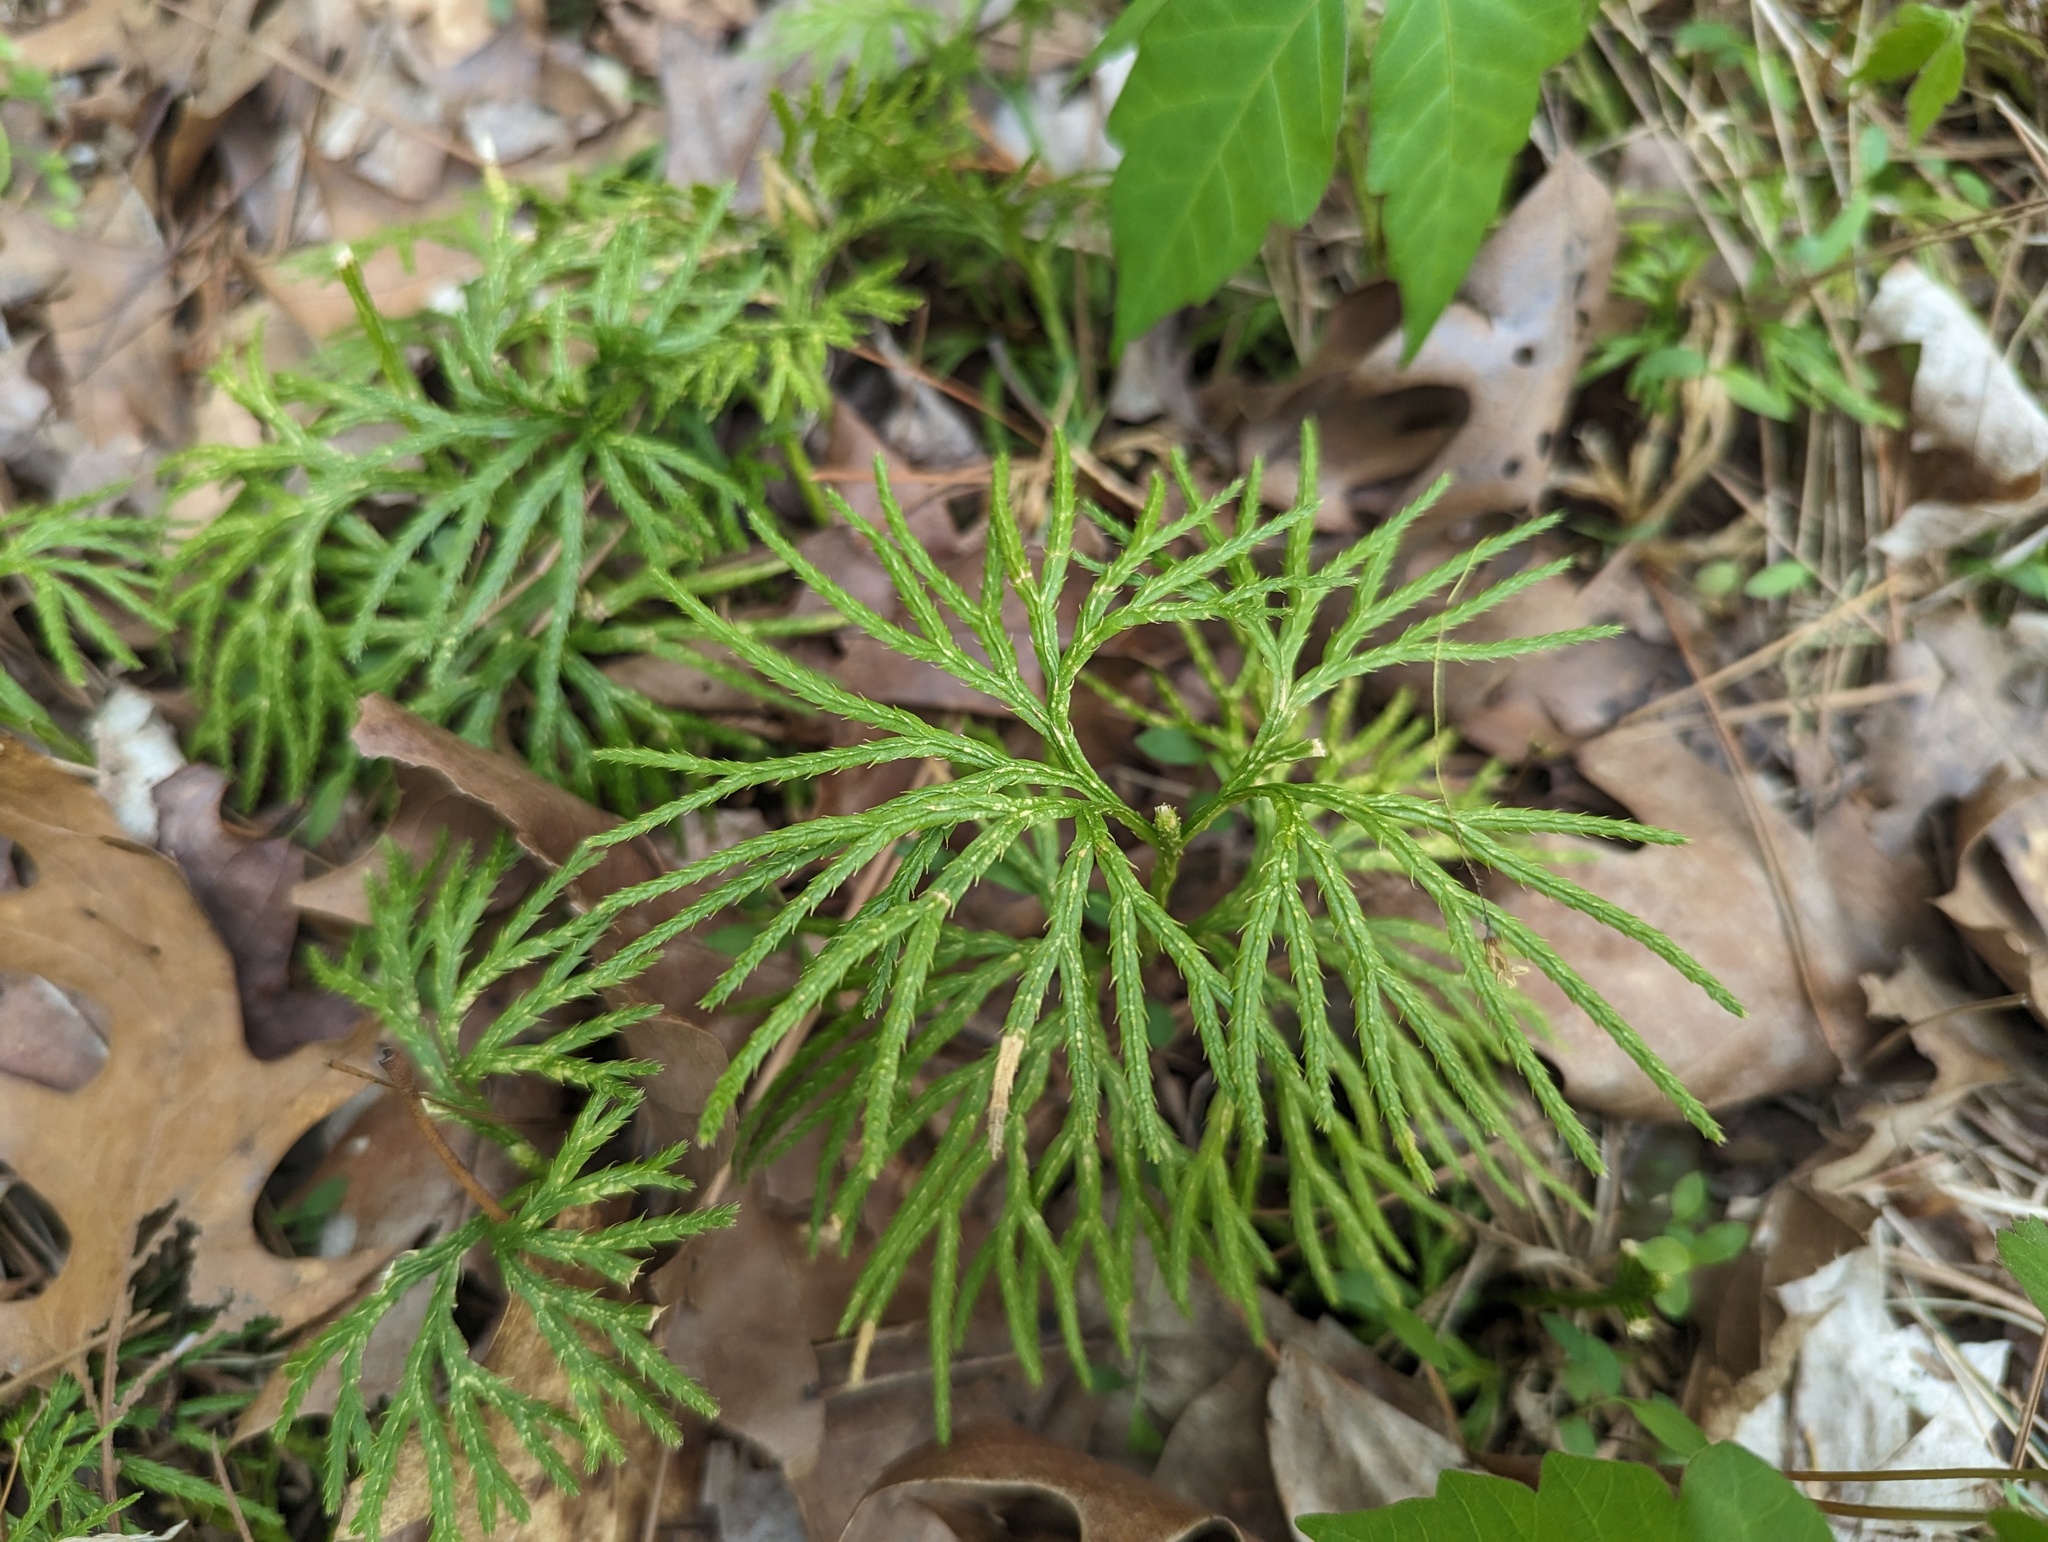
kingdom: Plantae
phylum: Tracheophyta
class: Lycopodiopsida
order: Lycopodiales
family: Lycopodiaceae
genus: Diphasiastrum
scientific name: Diphasiastrum digitatum
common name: Southern running-pine
